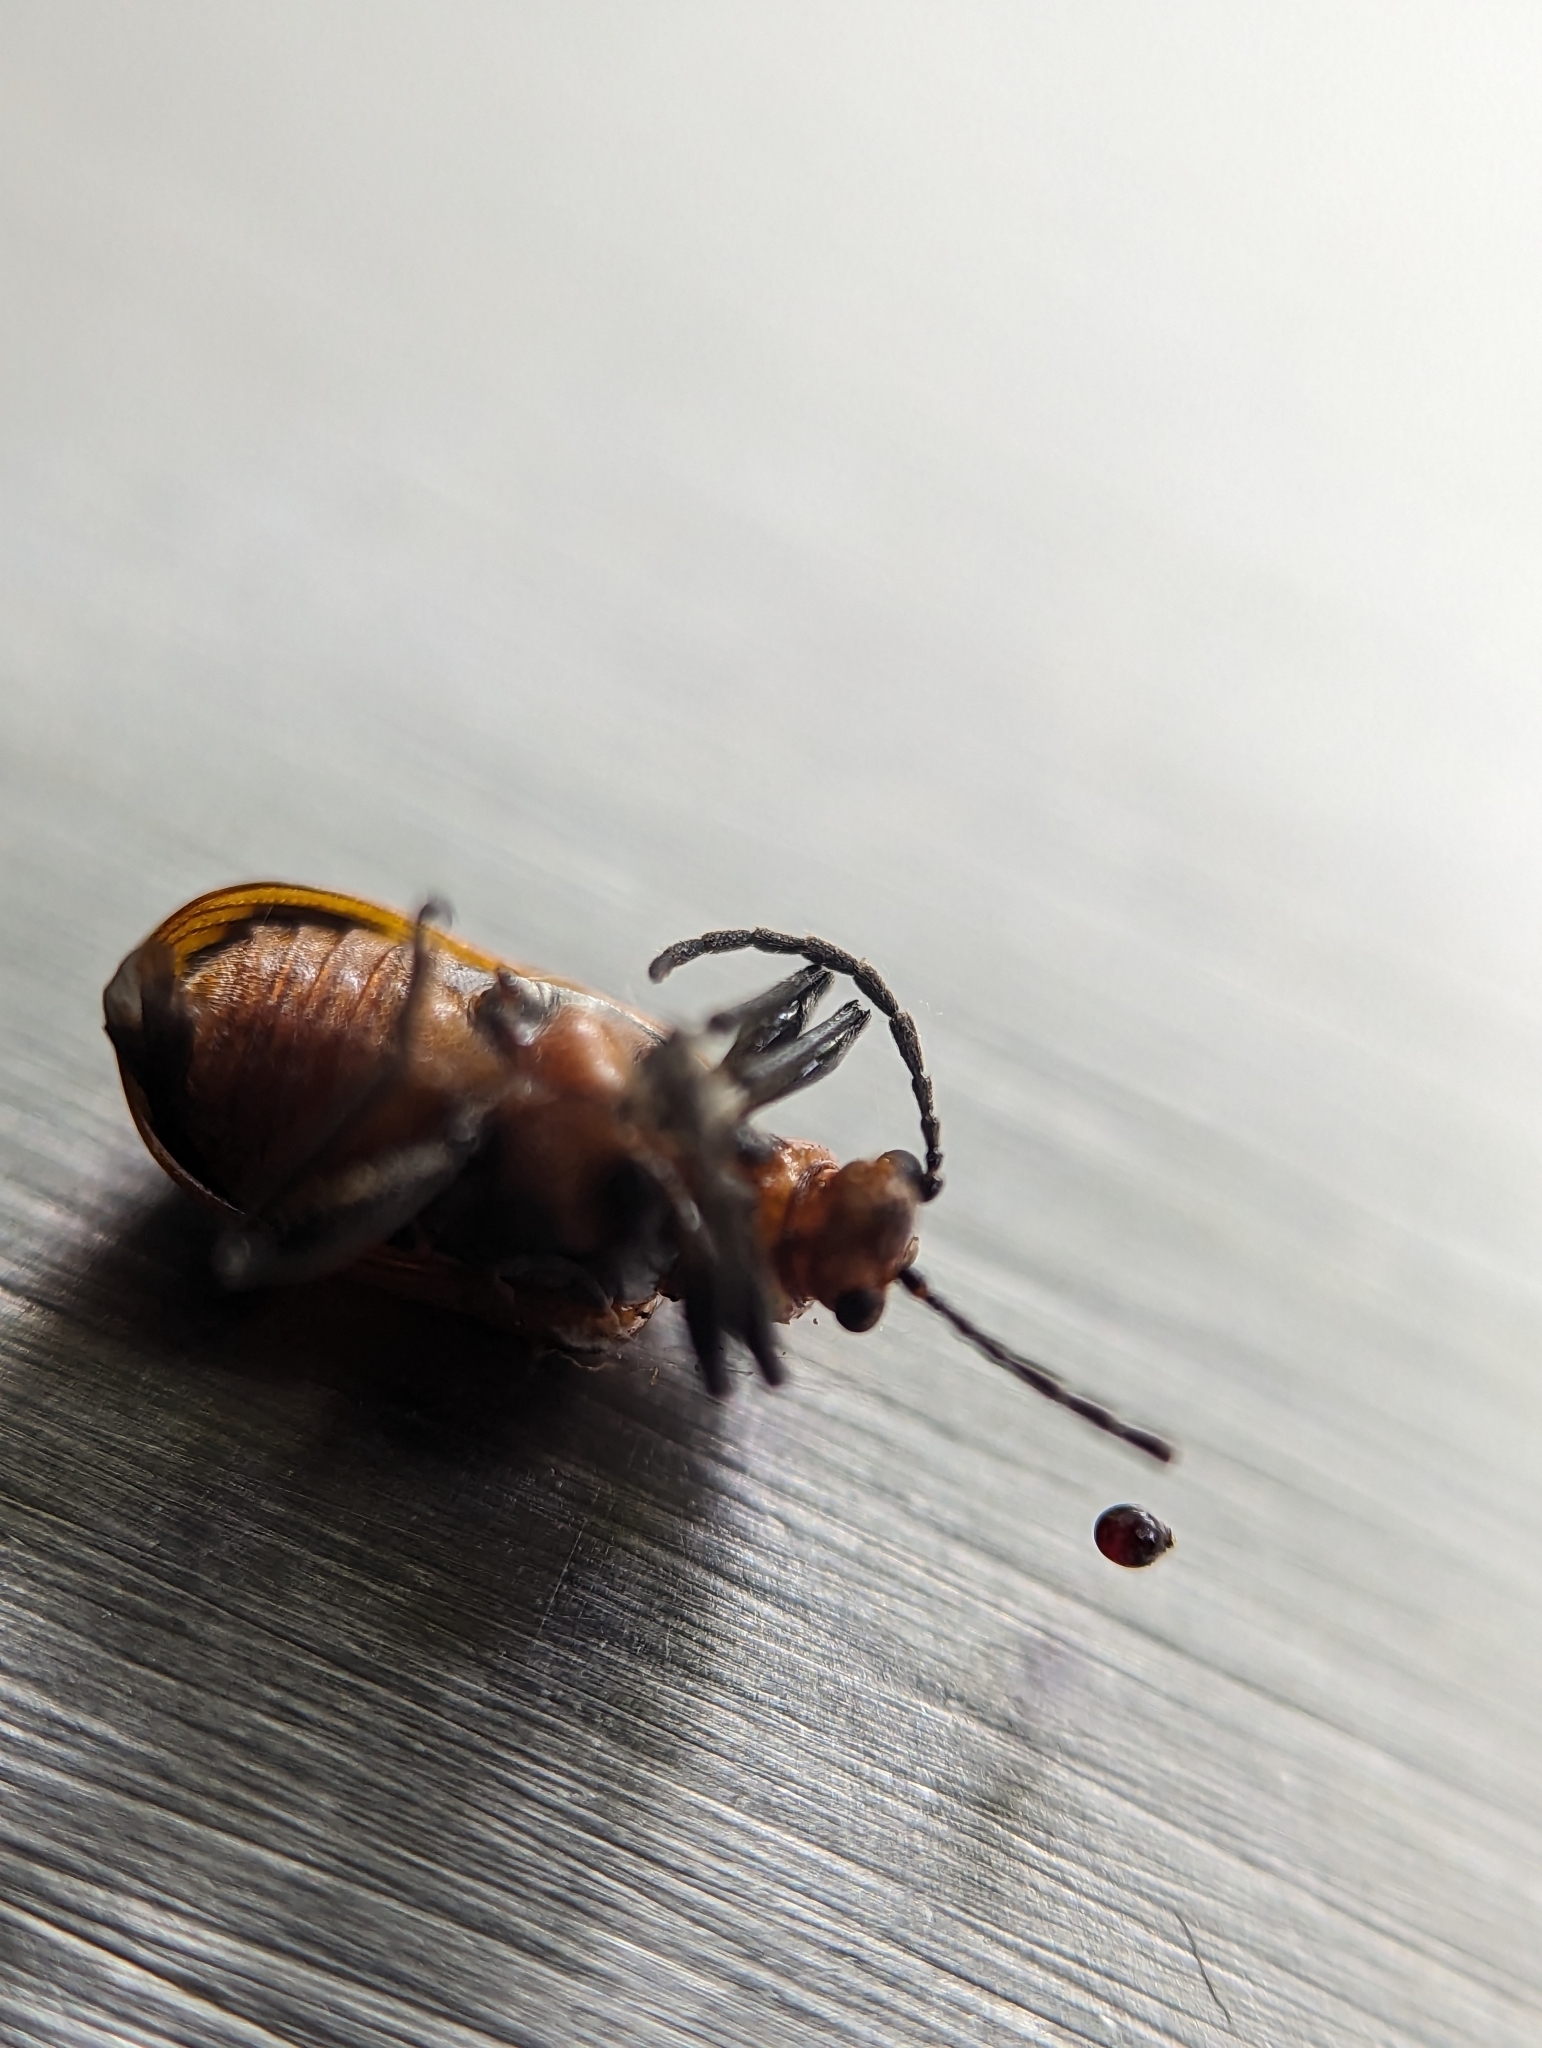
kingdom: Animalia
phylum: Arthropoda
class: Insecta
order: Coleoptera
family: Chrysomelidae
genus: Neolema
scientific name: Neolema sexpunctata
